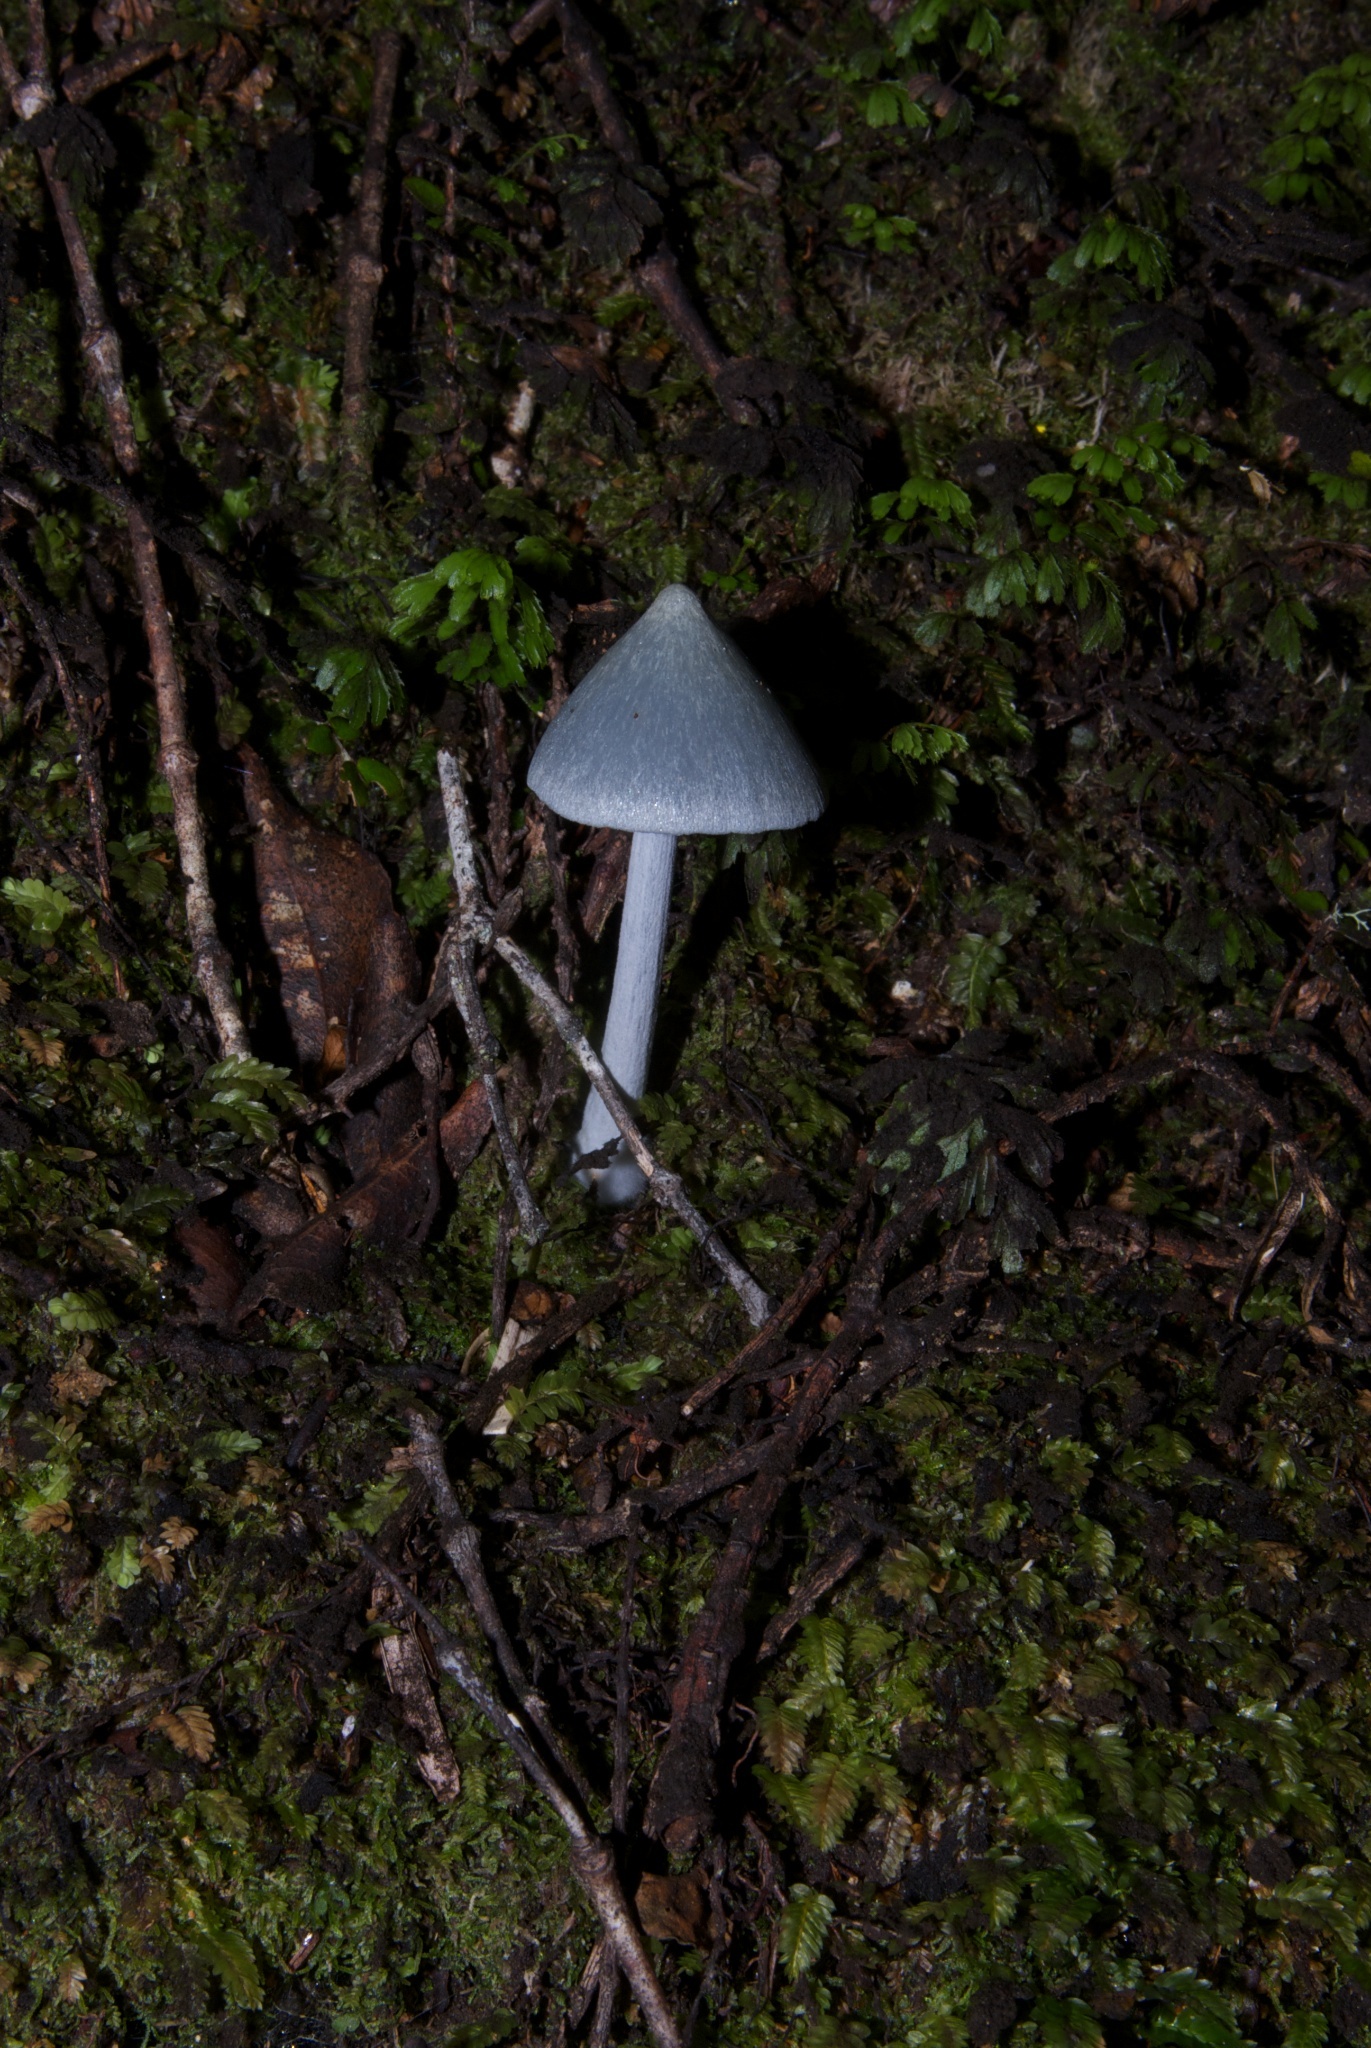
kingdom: Fungi
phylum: Basidiomycota
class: Agaricomycetes
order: Agaricales
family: Entolomataceae
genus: Entoloma
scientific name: Entoloma hochstetteri
